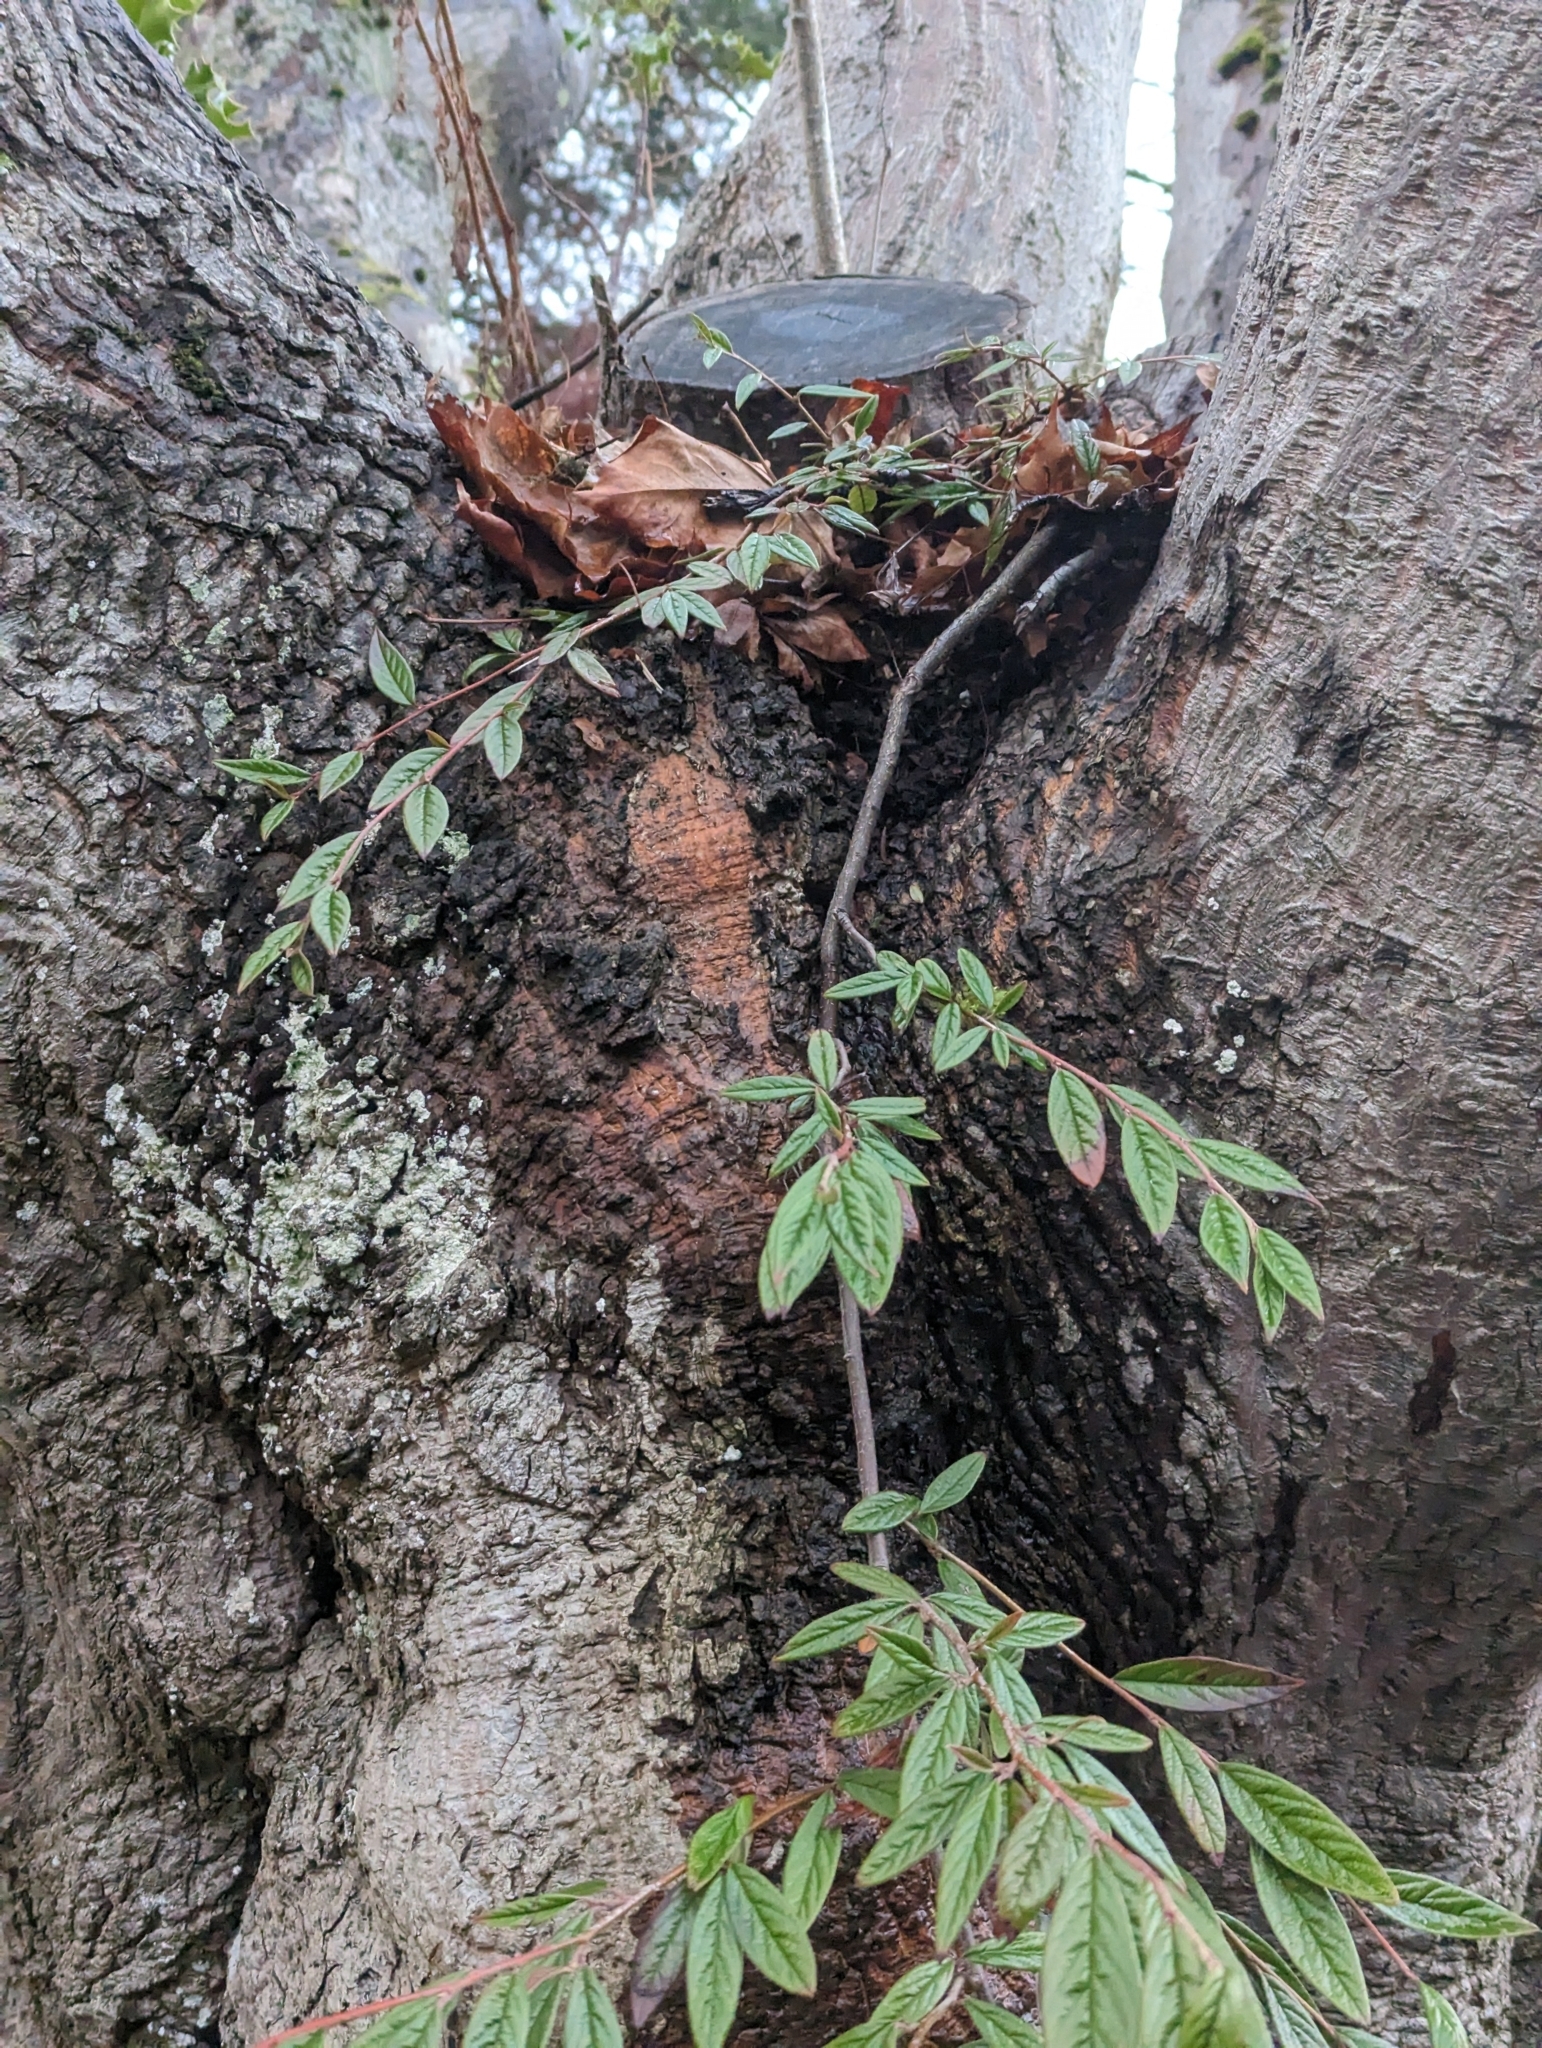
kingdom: Plantae
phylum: Tracheophyta
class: Magnoliopsida
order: Rosales
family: Rosaceae
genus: Cotoneaster
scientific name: Cotoneaster salicifolius
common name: Willow-leaved cotoneaster
